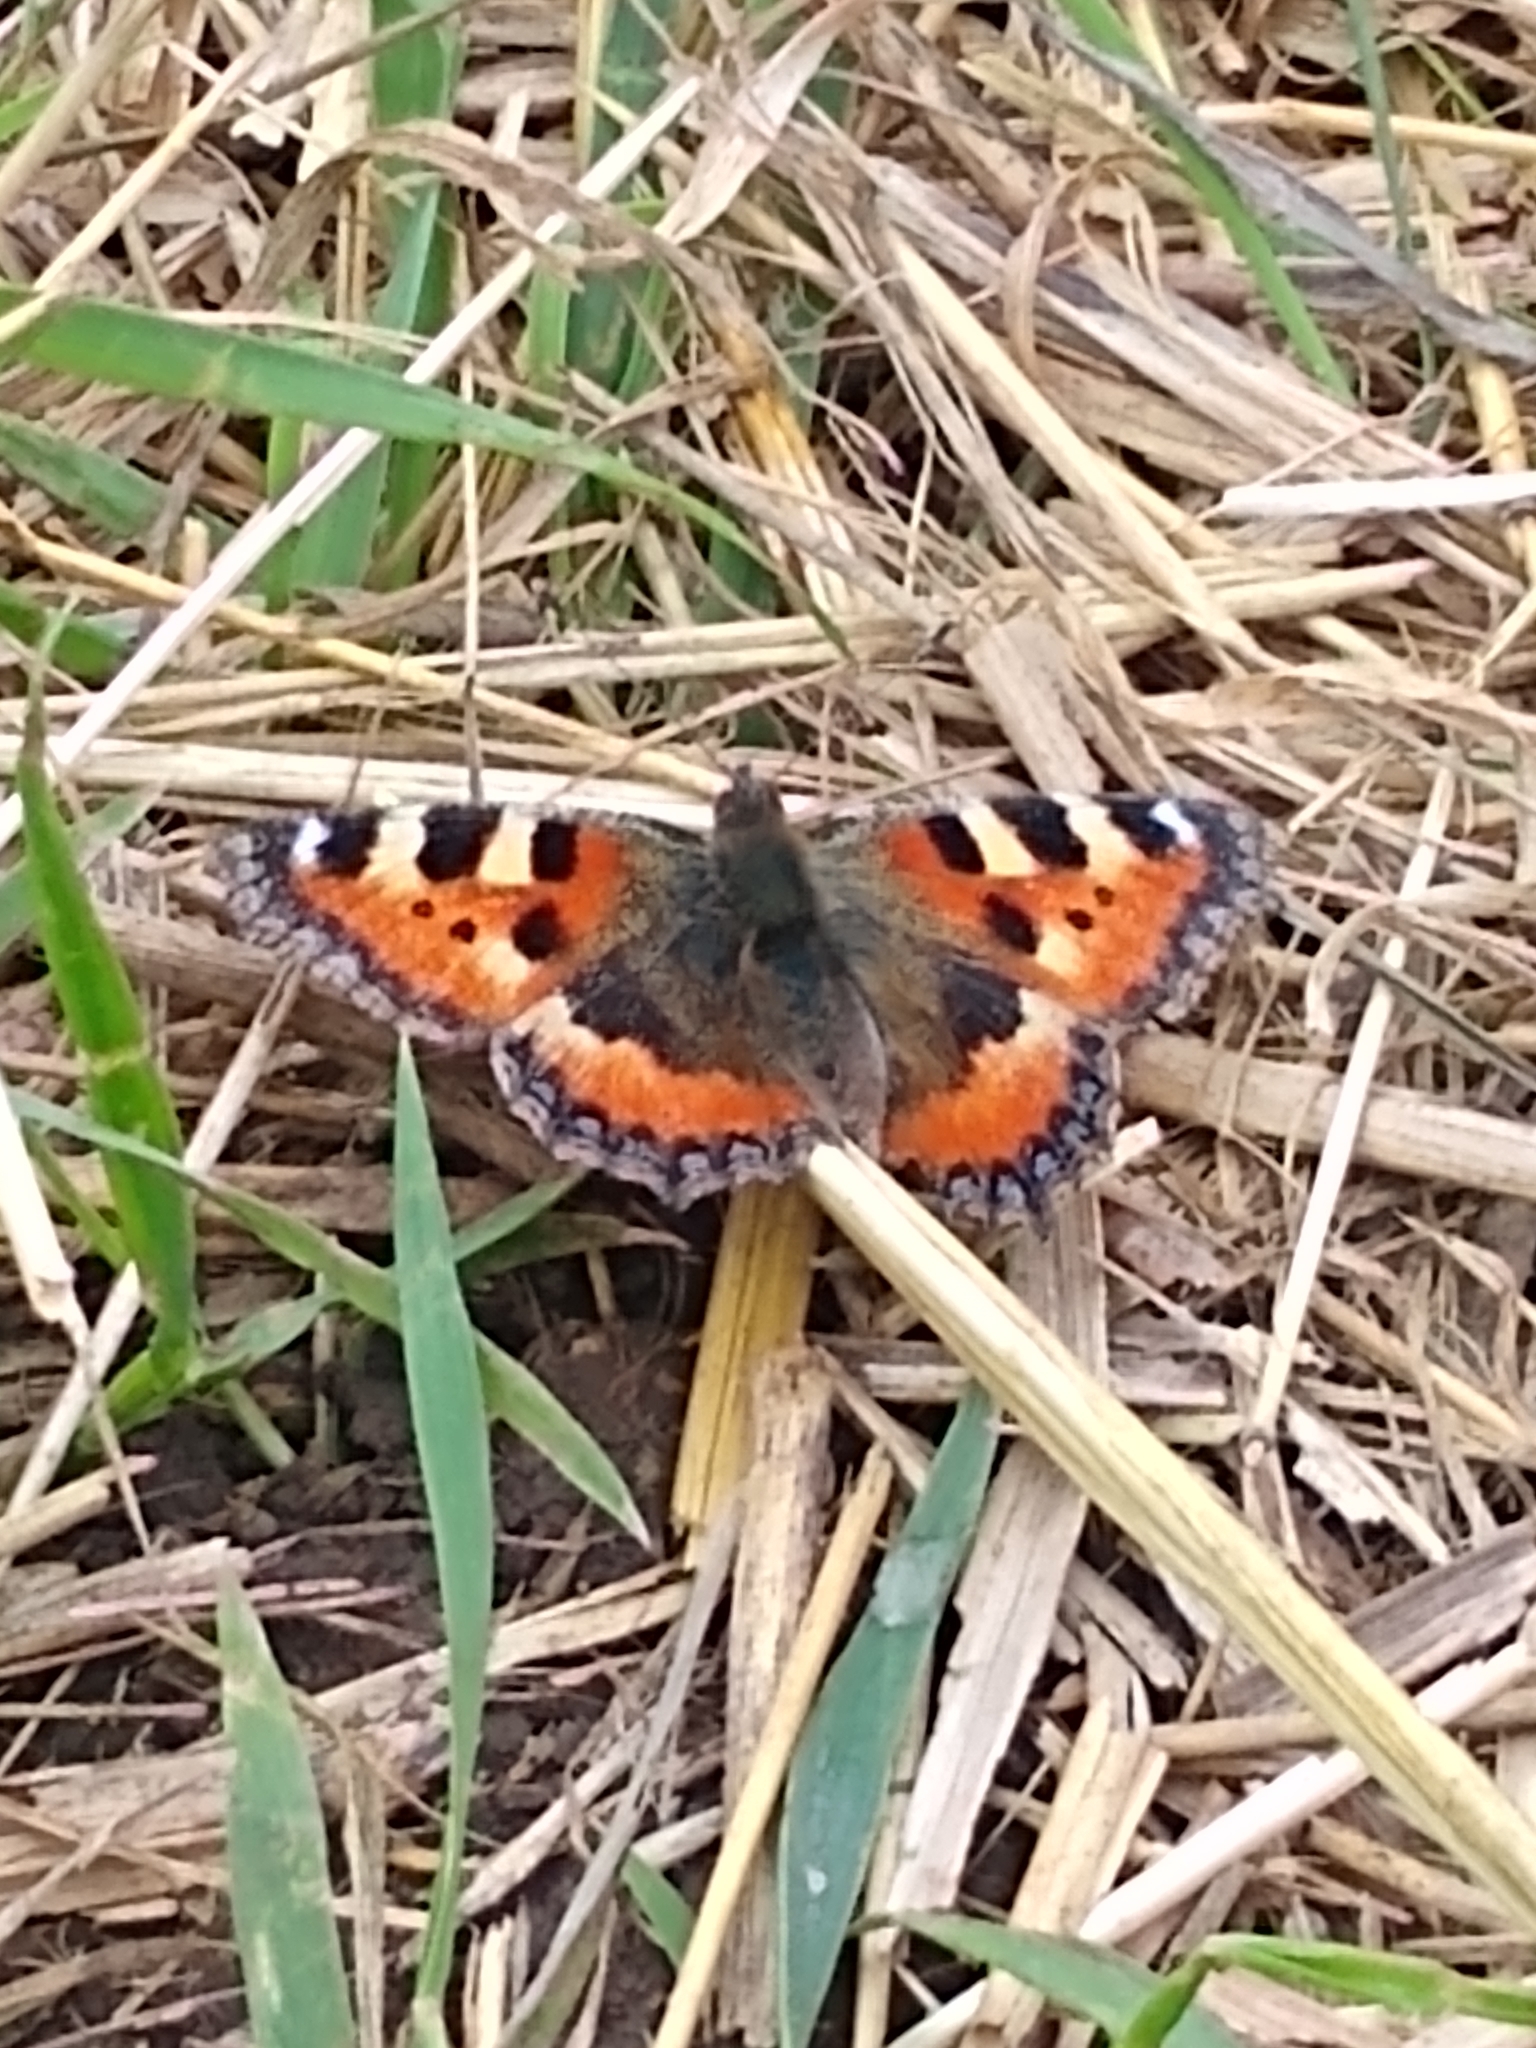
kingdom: Animalia
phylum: Arthropoda
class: Insecta
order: Lepidoptera
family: Nymphalidae
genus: Aglais
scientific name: Aglais urticae
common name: Small tortoiseshell
